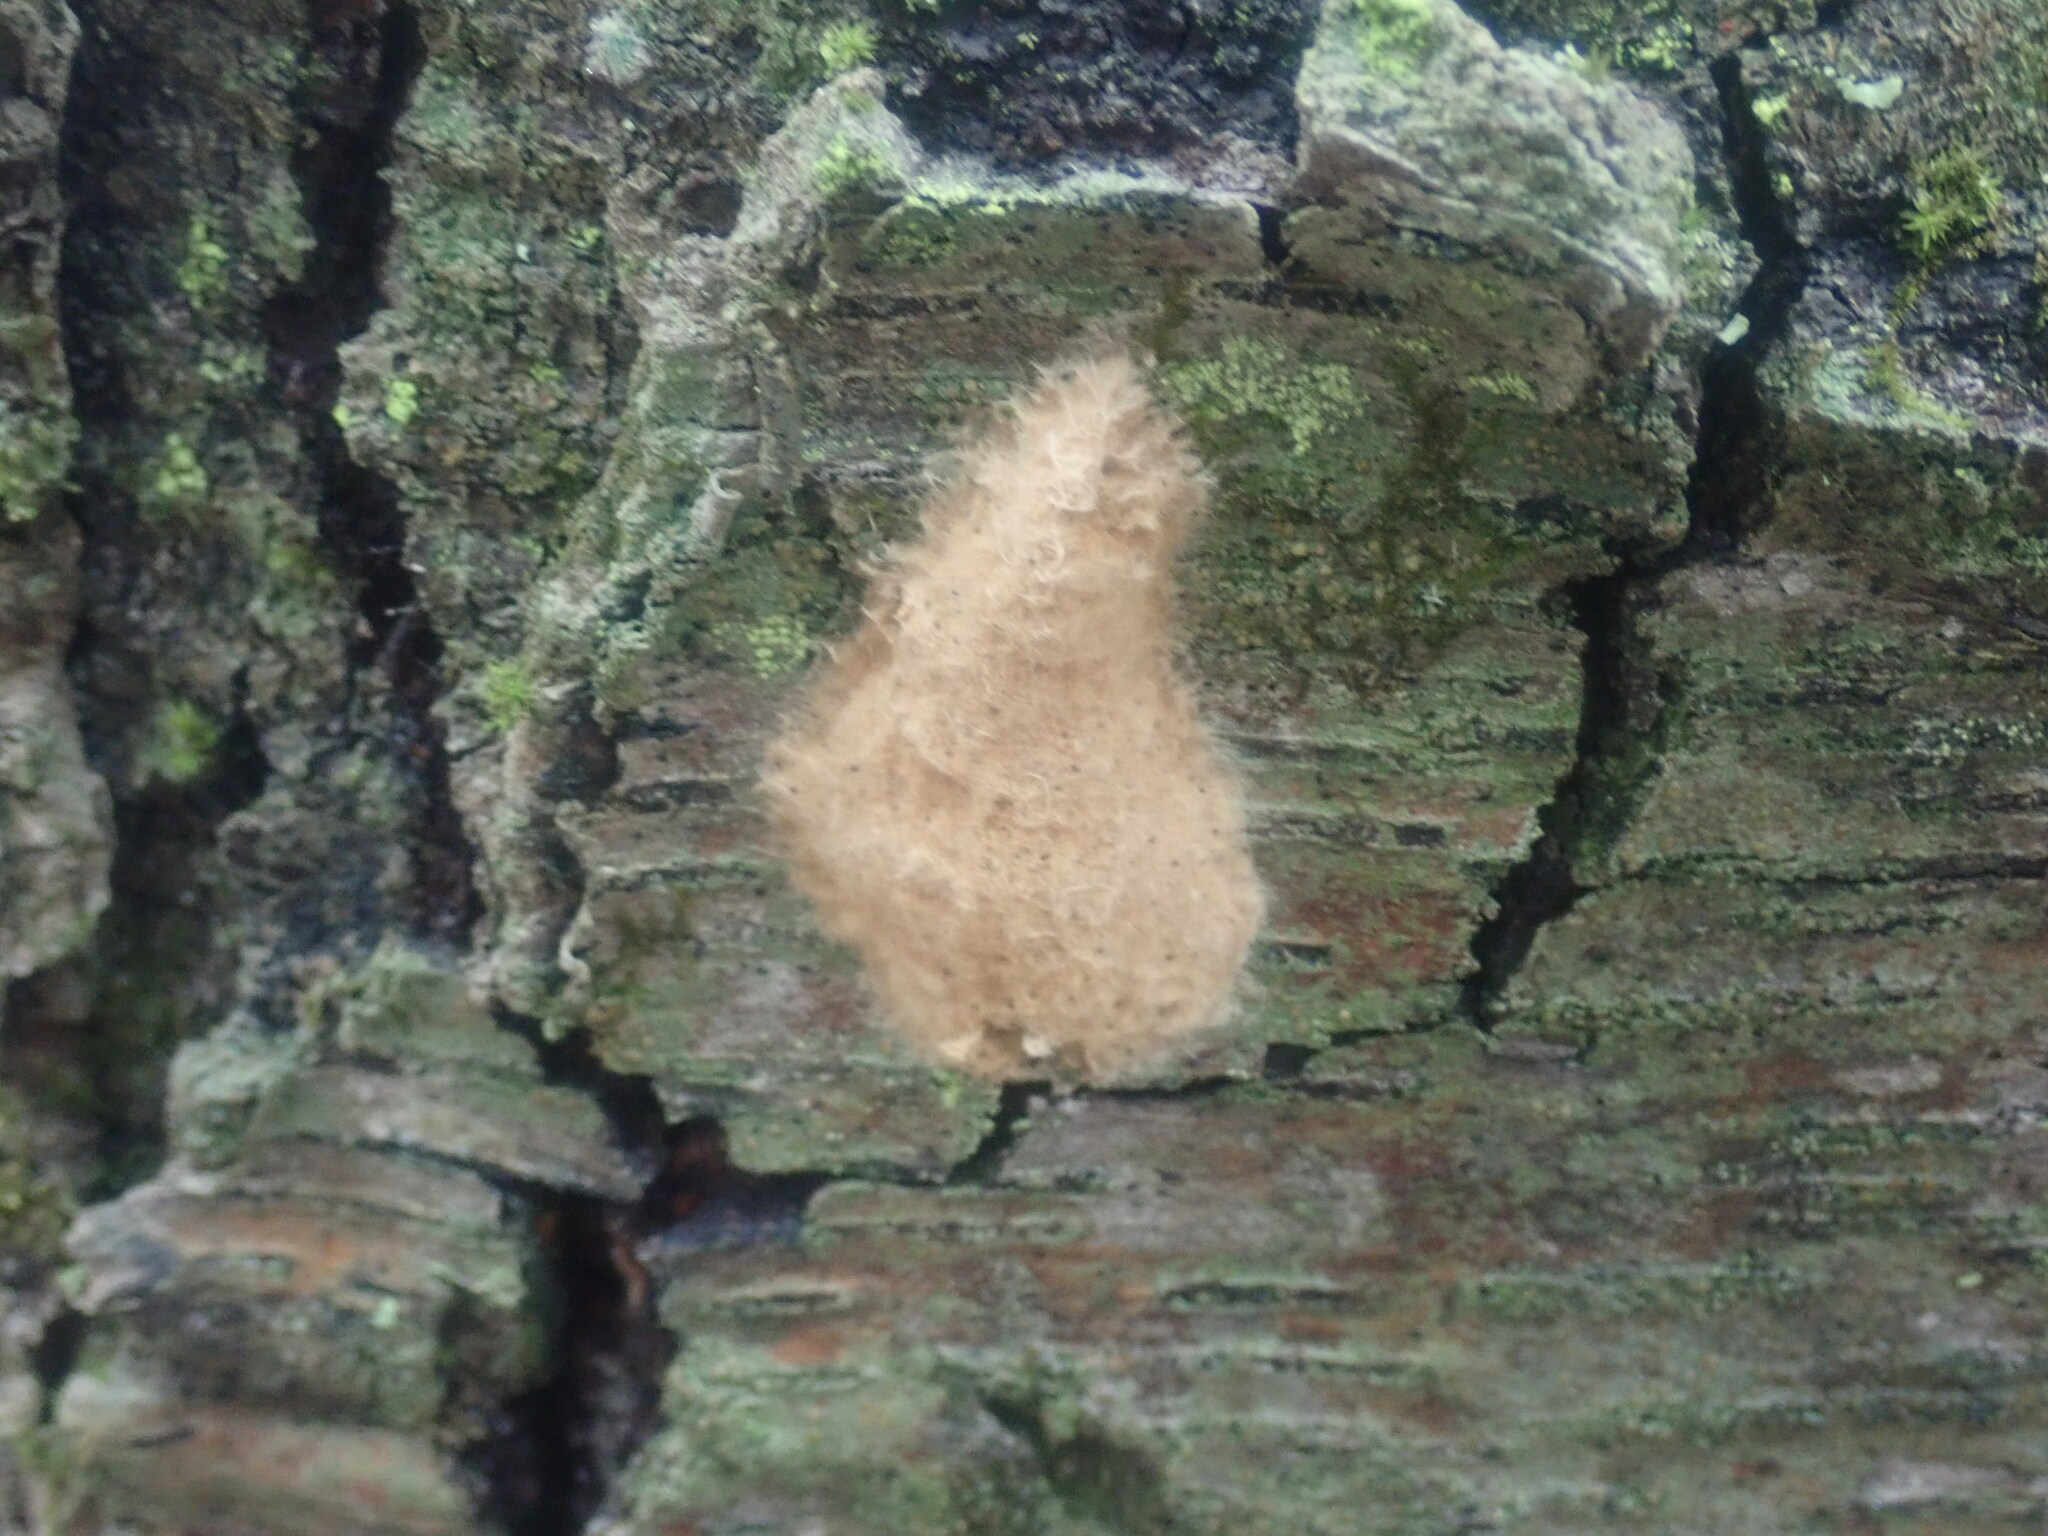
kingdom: Animalia
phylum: Arthropoda
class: Insecta
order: Lepidoptera
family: Erebidae
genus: Lymantria
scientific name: Lymantria dispar
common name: Gypsy moth
